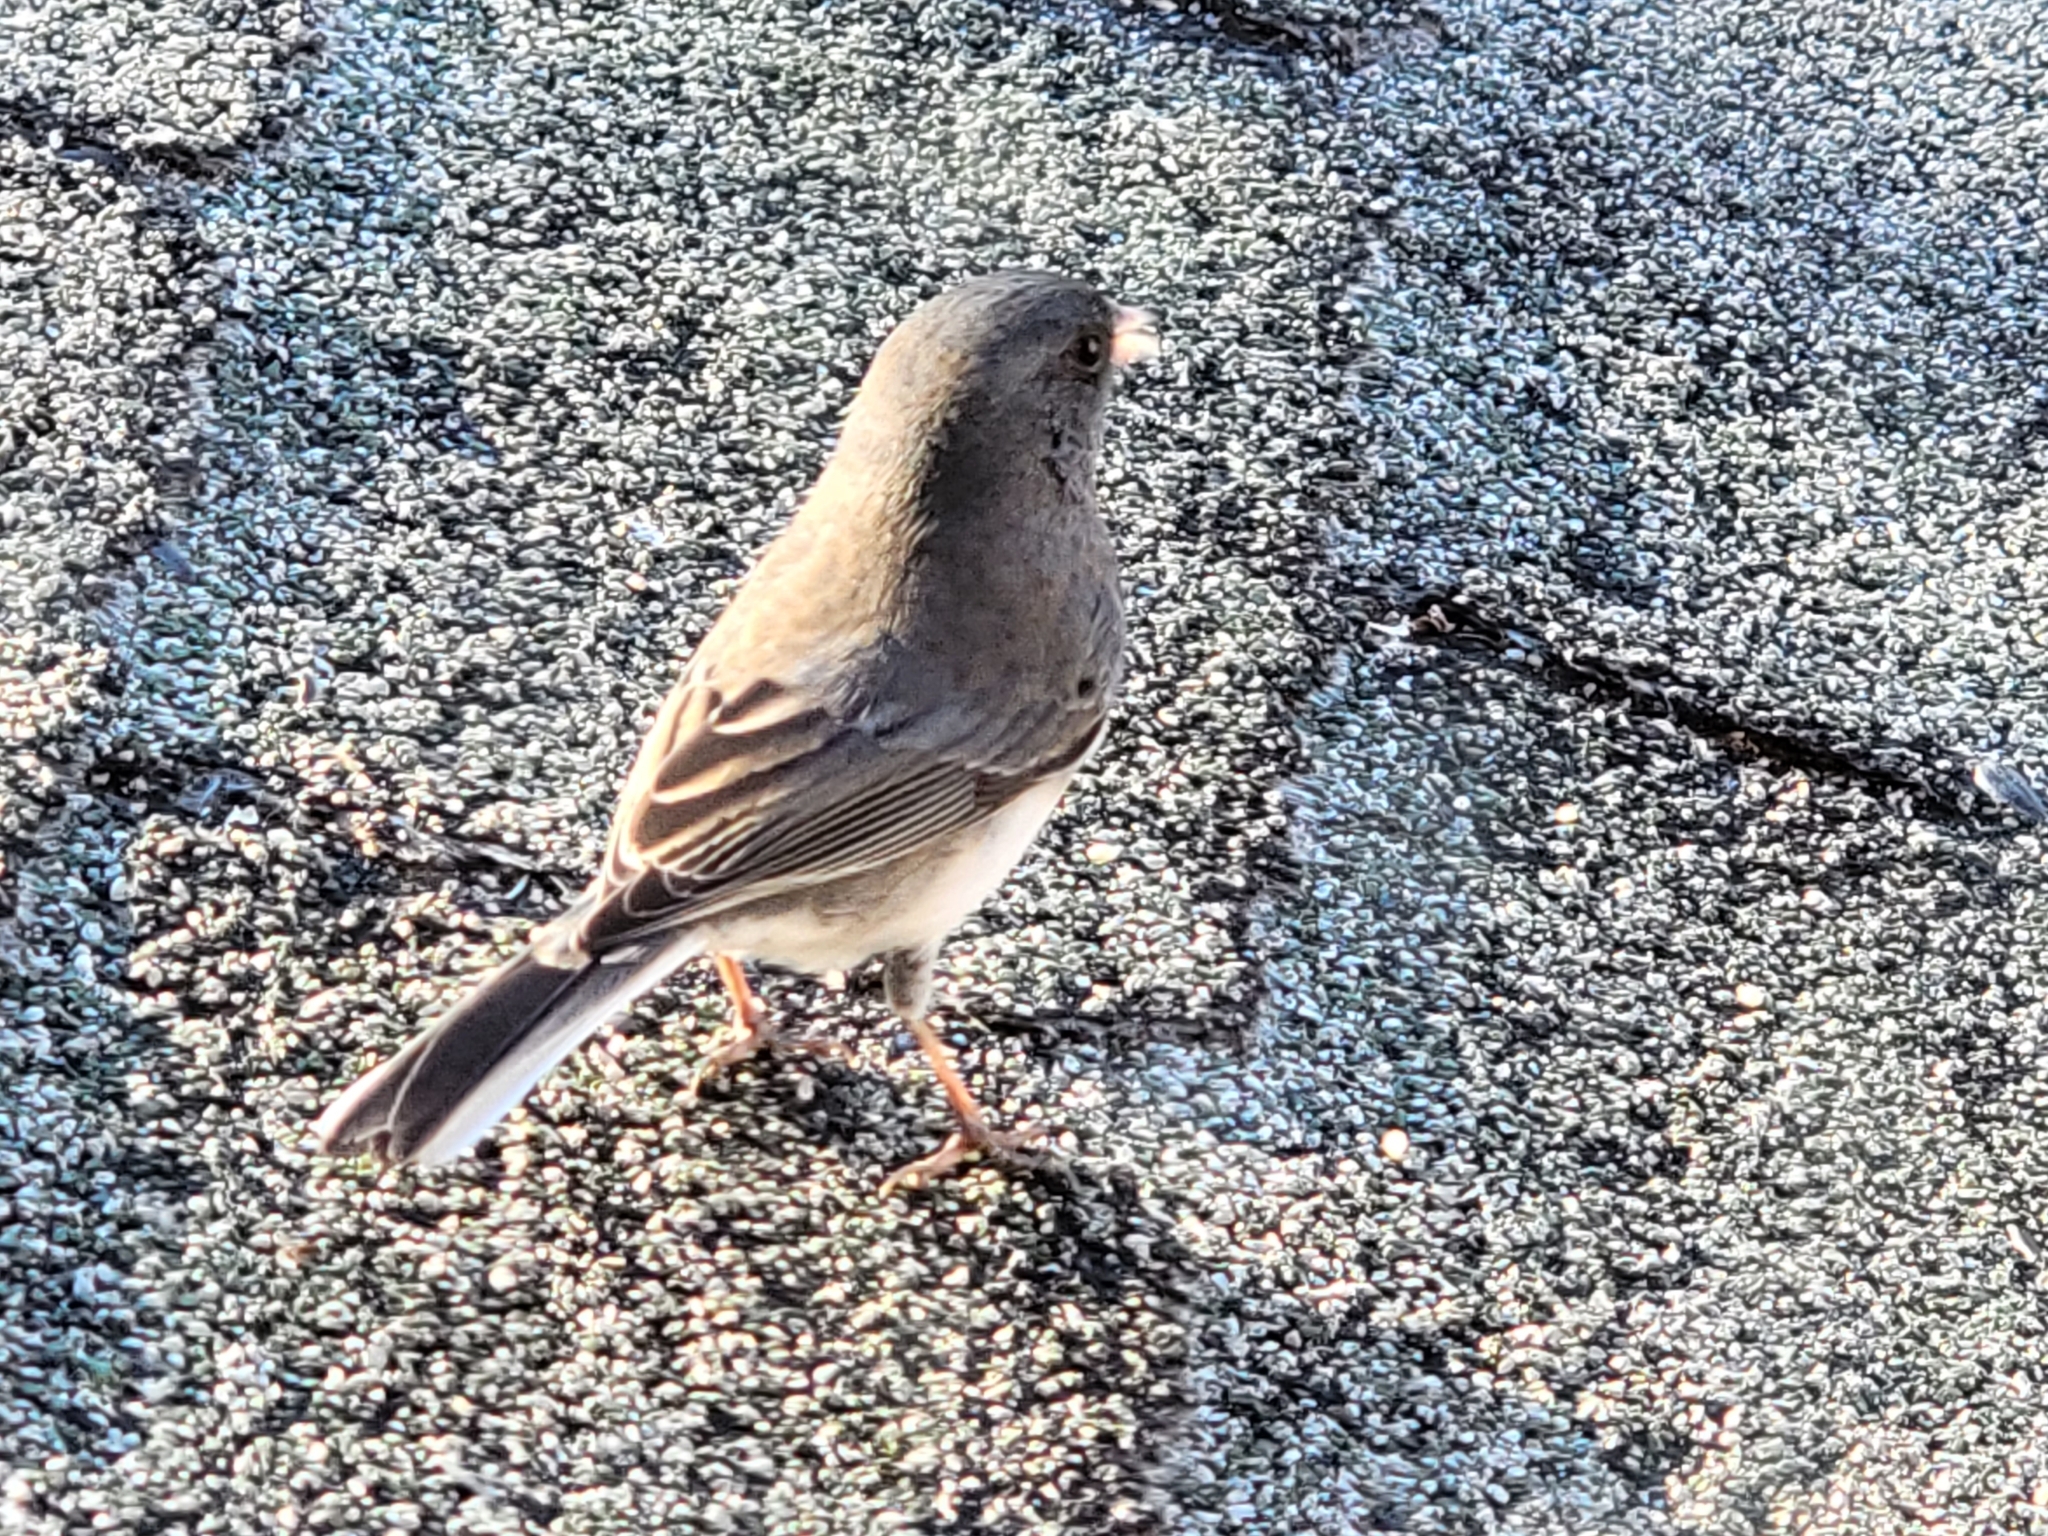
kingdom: Animalia
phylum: Chordata
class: Aves
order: Passeriformes
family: Passerellidae
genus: Junco
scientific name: Junco hyemalis
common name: Dark-eyed junco
